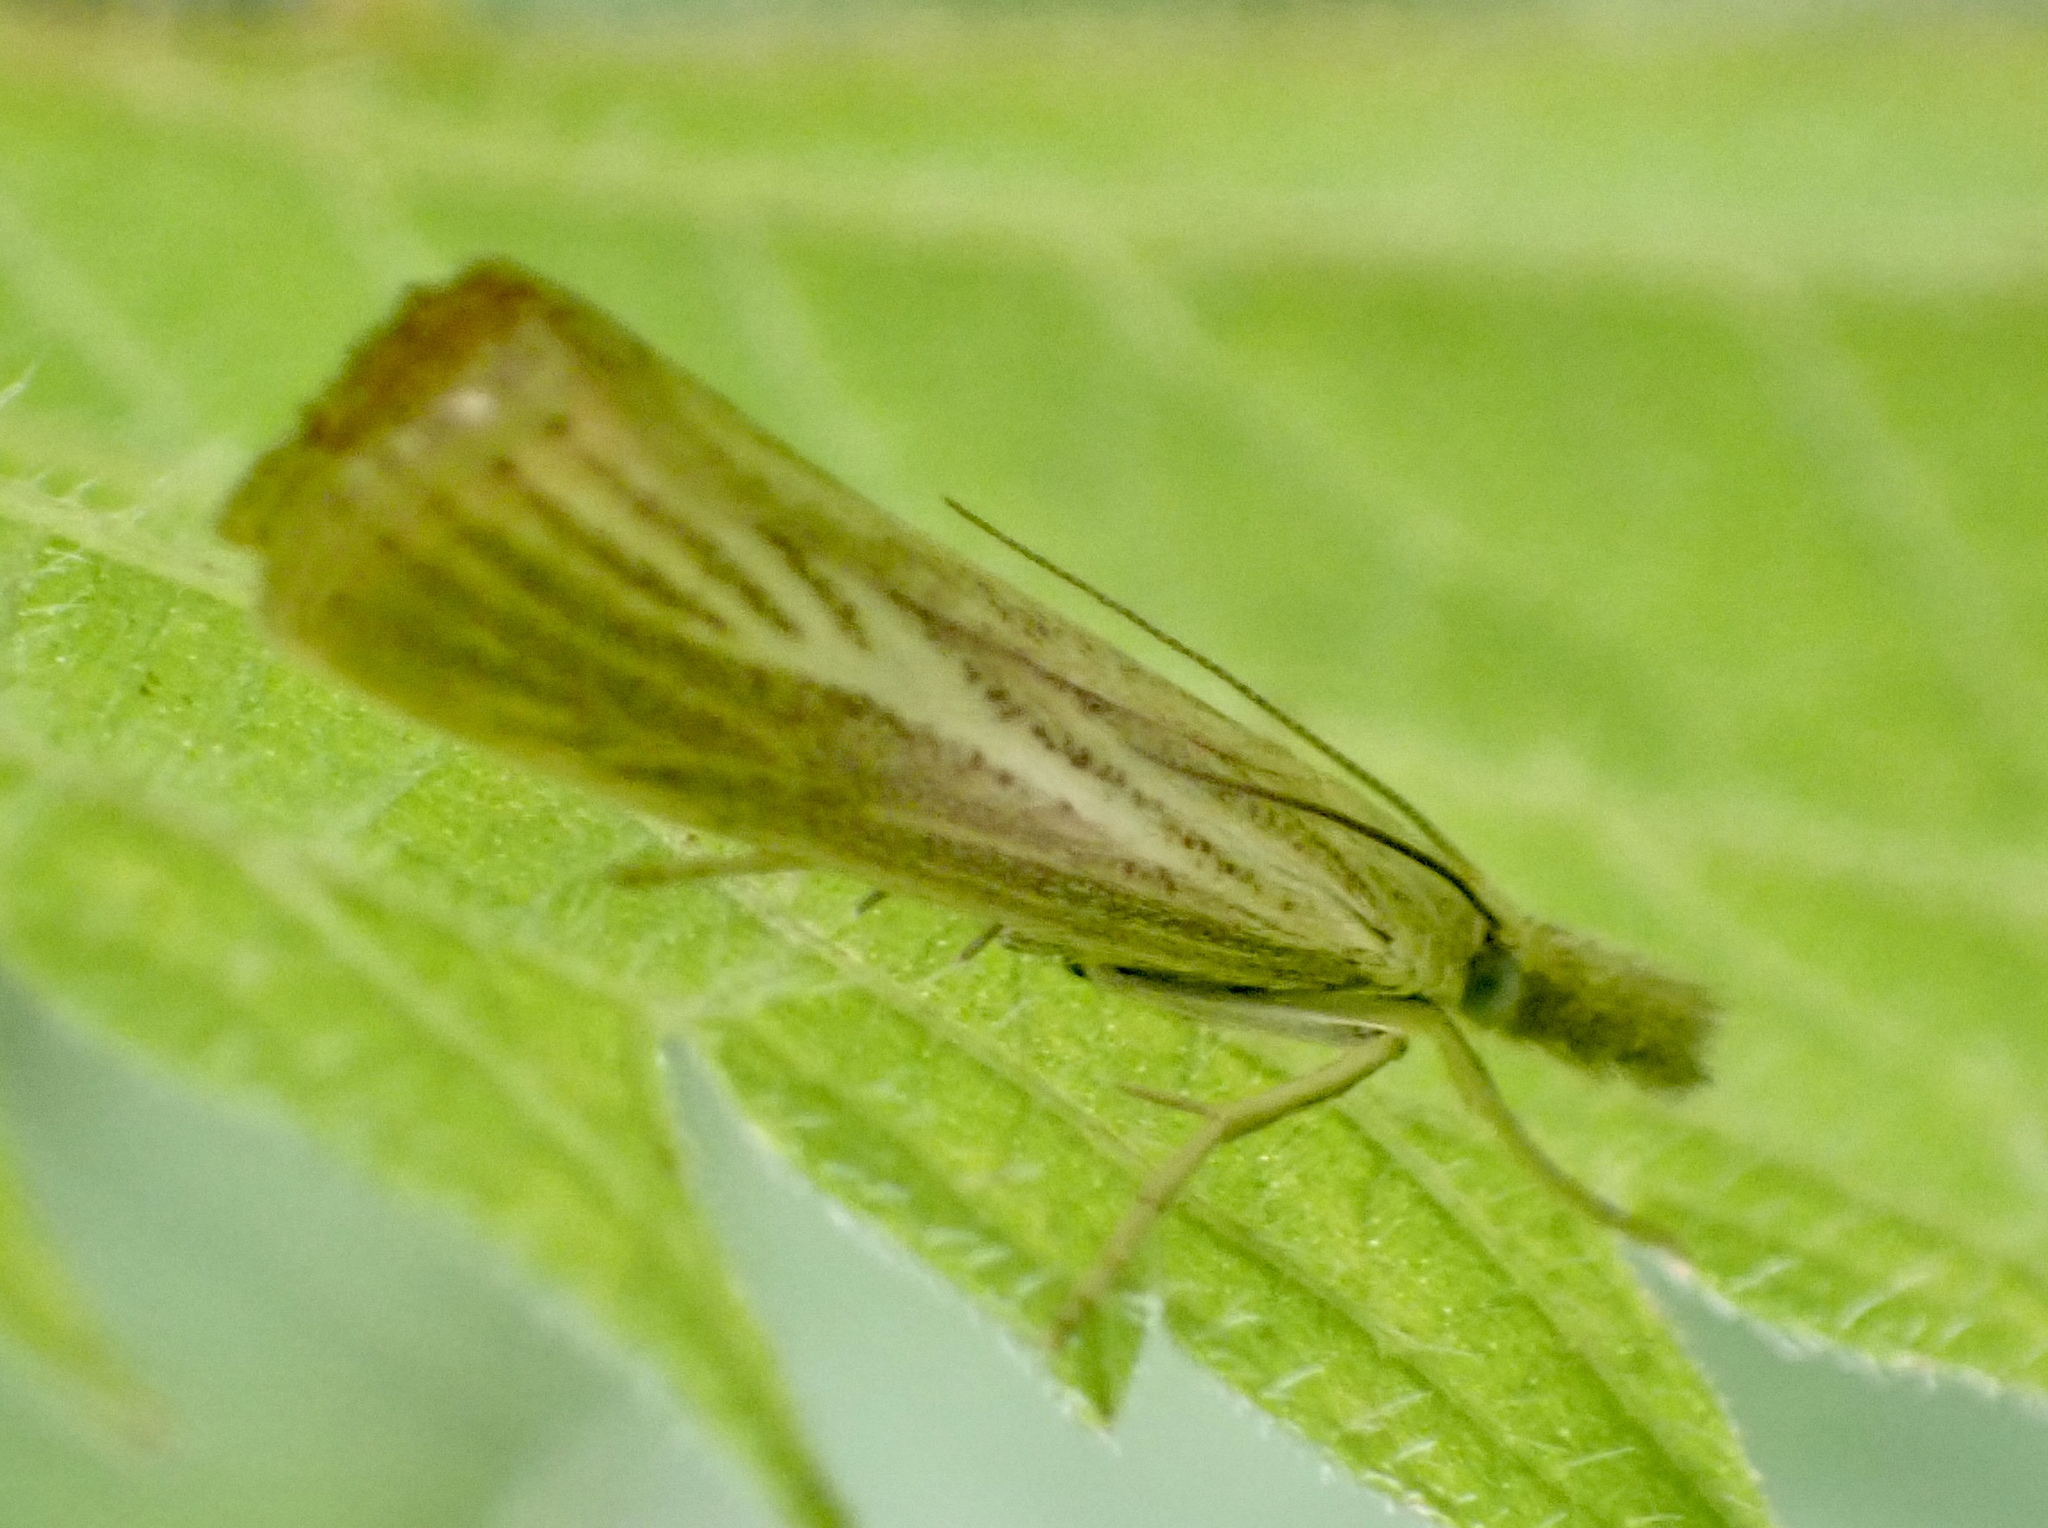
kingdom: Animalia
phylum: Arthropoda
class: Insecta
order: Lepidoptera
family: Crambidae
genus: Agriphila
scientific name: Agriphila straminella
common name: Straw grass-veneer
